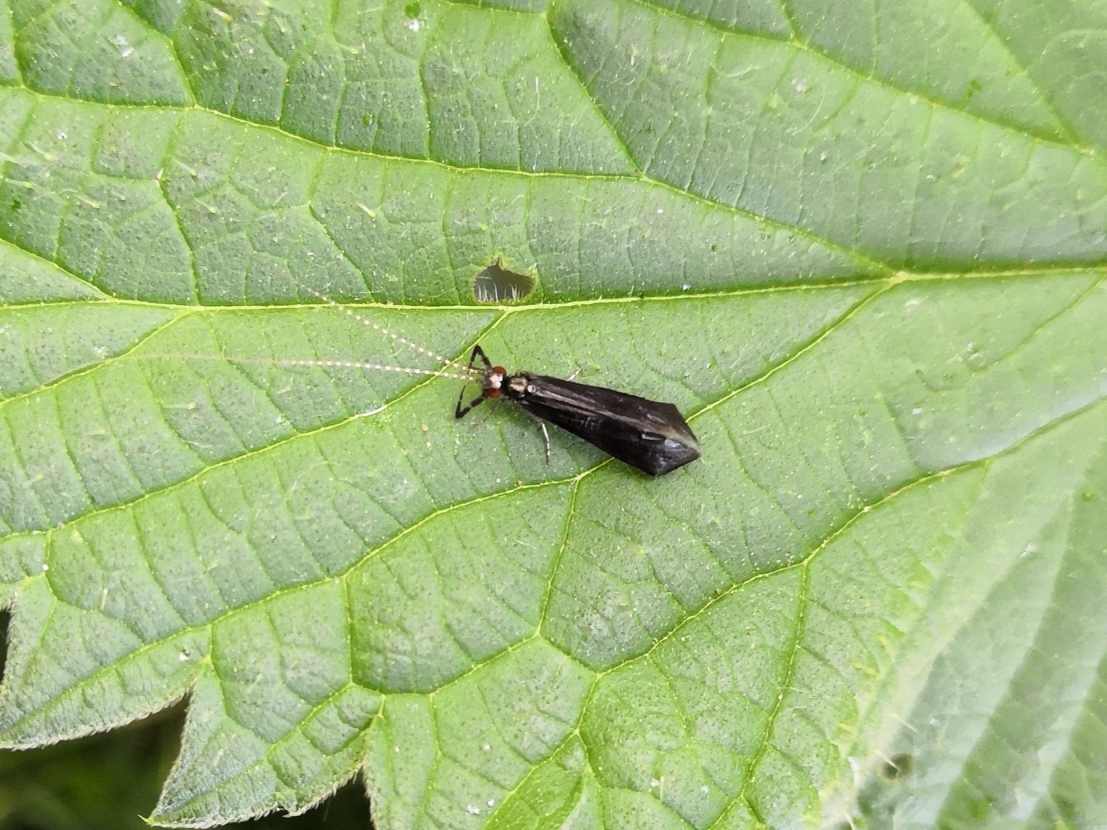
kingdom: Animalia
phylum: Arthropoda
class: Insecta
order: Trichoptera
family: Leptoceridae
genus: Mystacides
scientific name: Mystacides azureus
